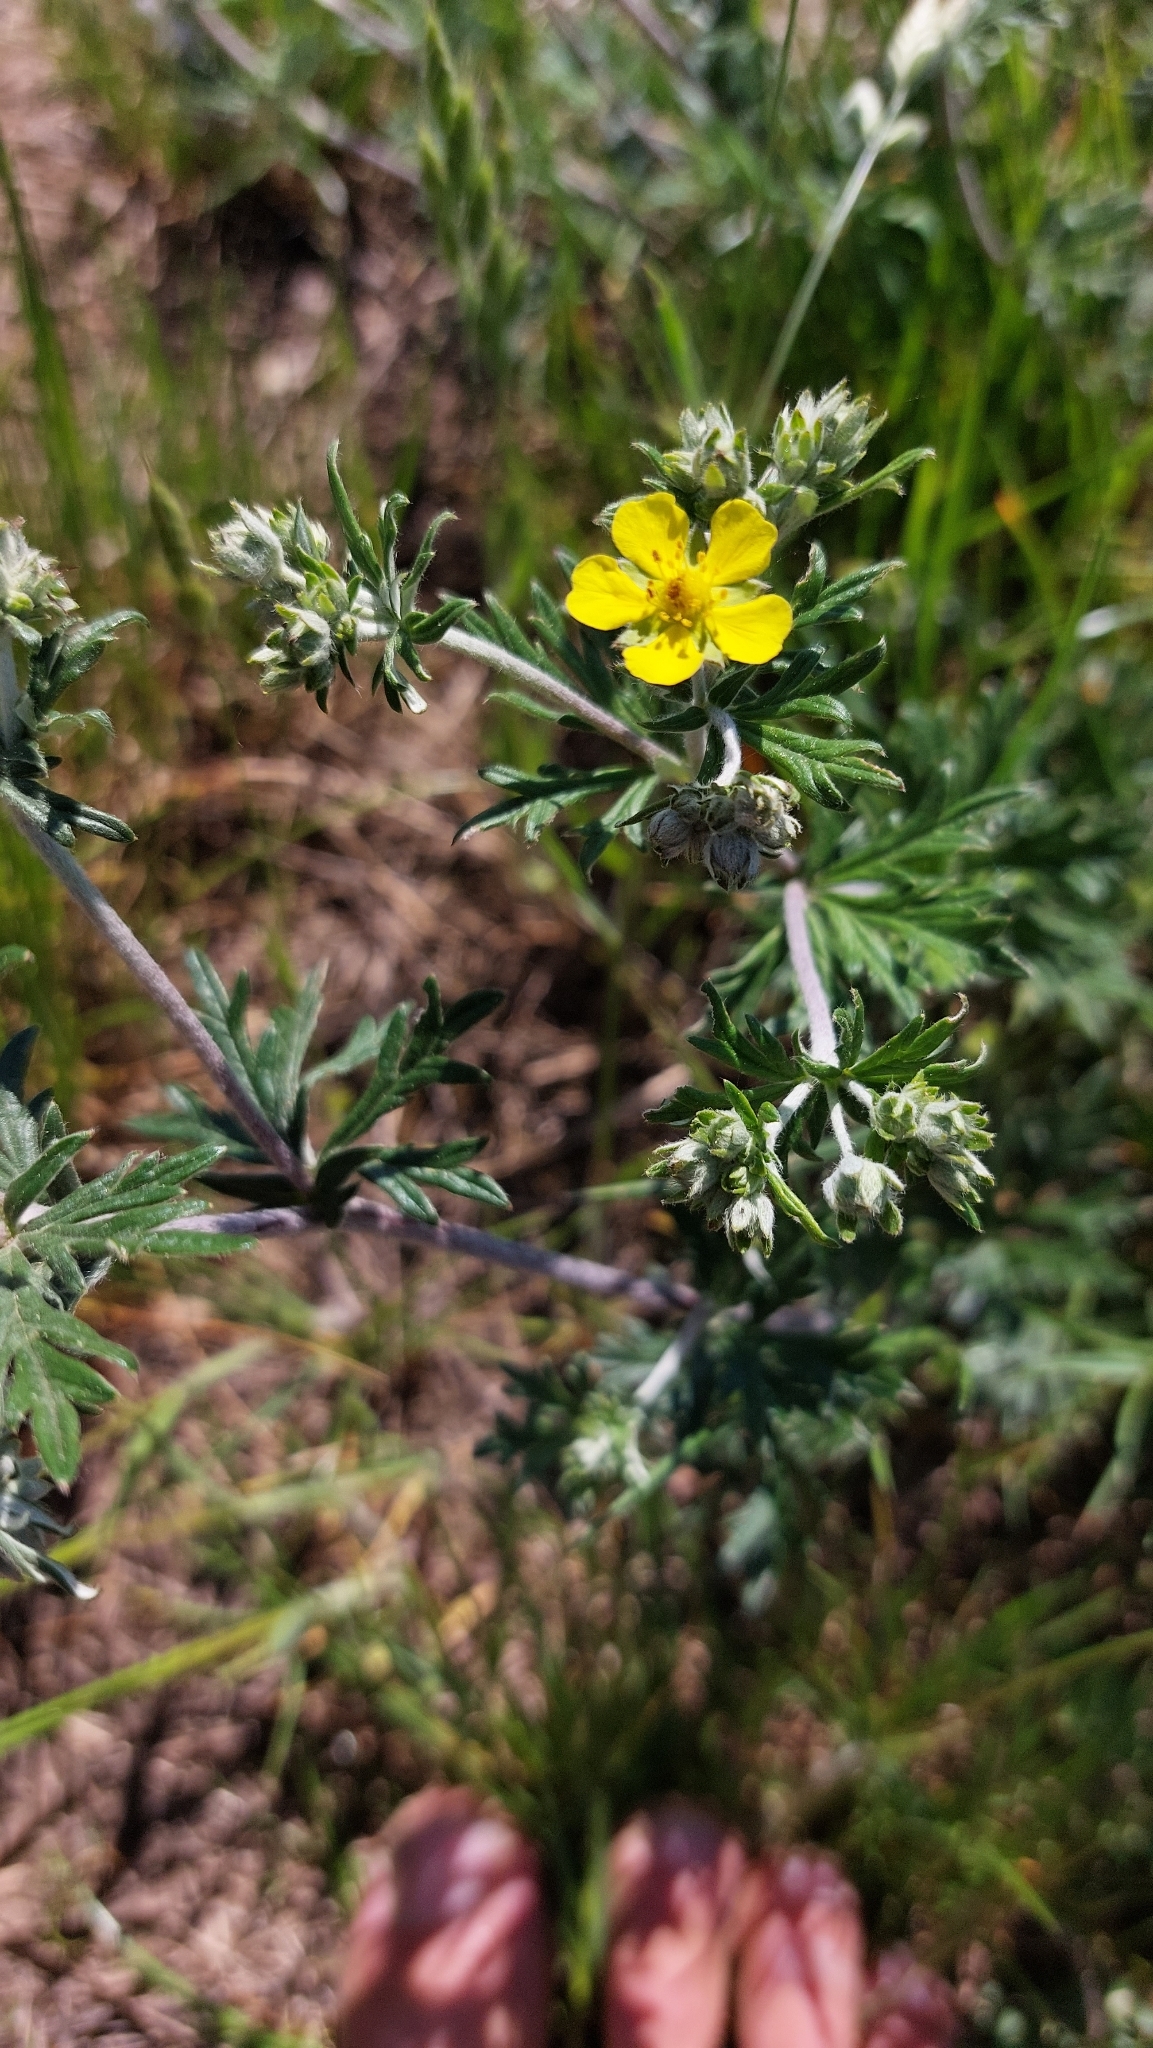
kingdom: Plantae
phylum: Tracheophyta
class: Magnoliopsida
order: Rosales
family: Rosaceae
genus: Potentilla
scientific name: Potentilla argentea
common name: Hoary cinquefoil
